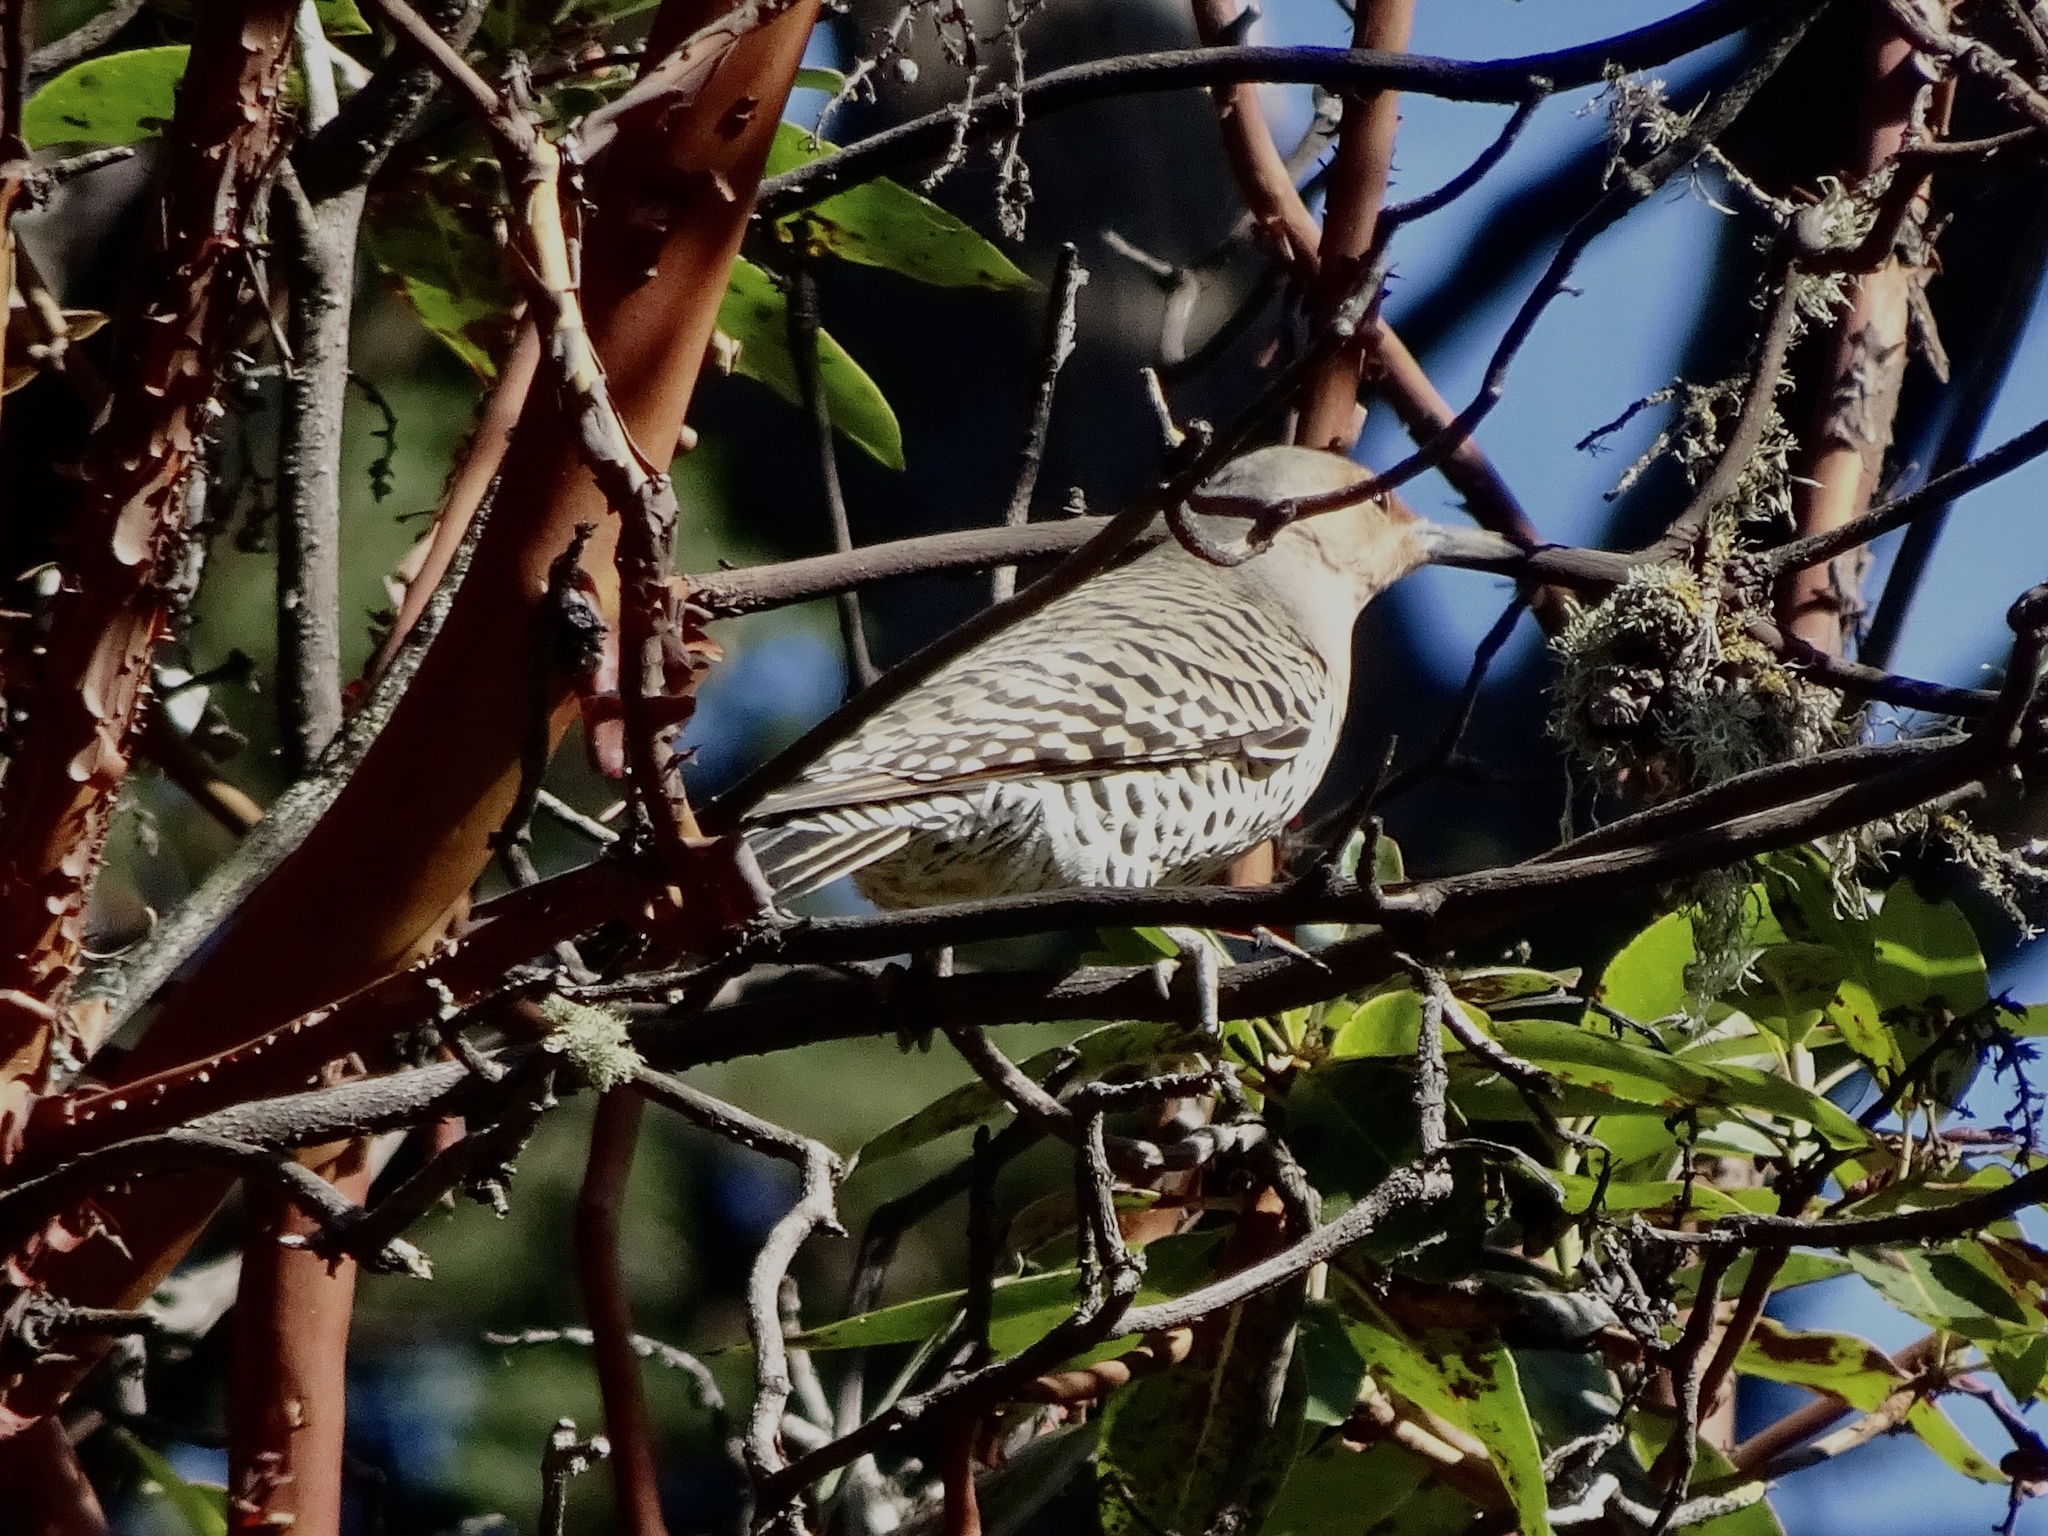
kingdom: Animalia
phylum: Chordata
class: Aves
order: Piciformes
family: Picidae
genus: Colaptes
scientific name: Colaptes auratus
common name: Northern flicker
